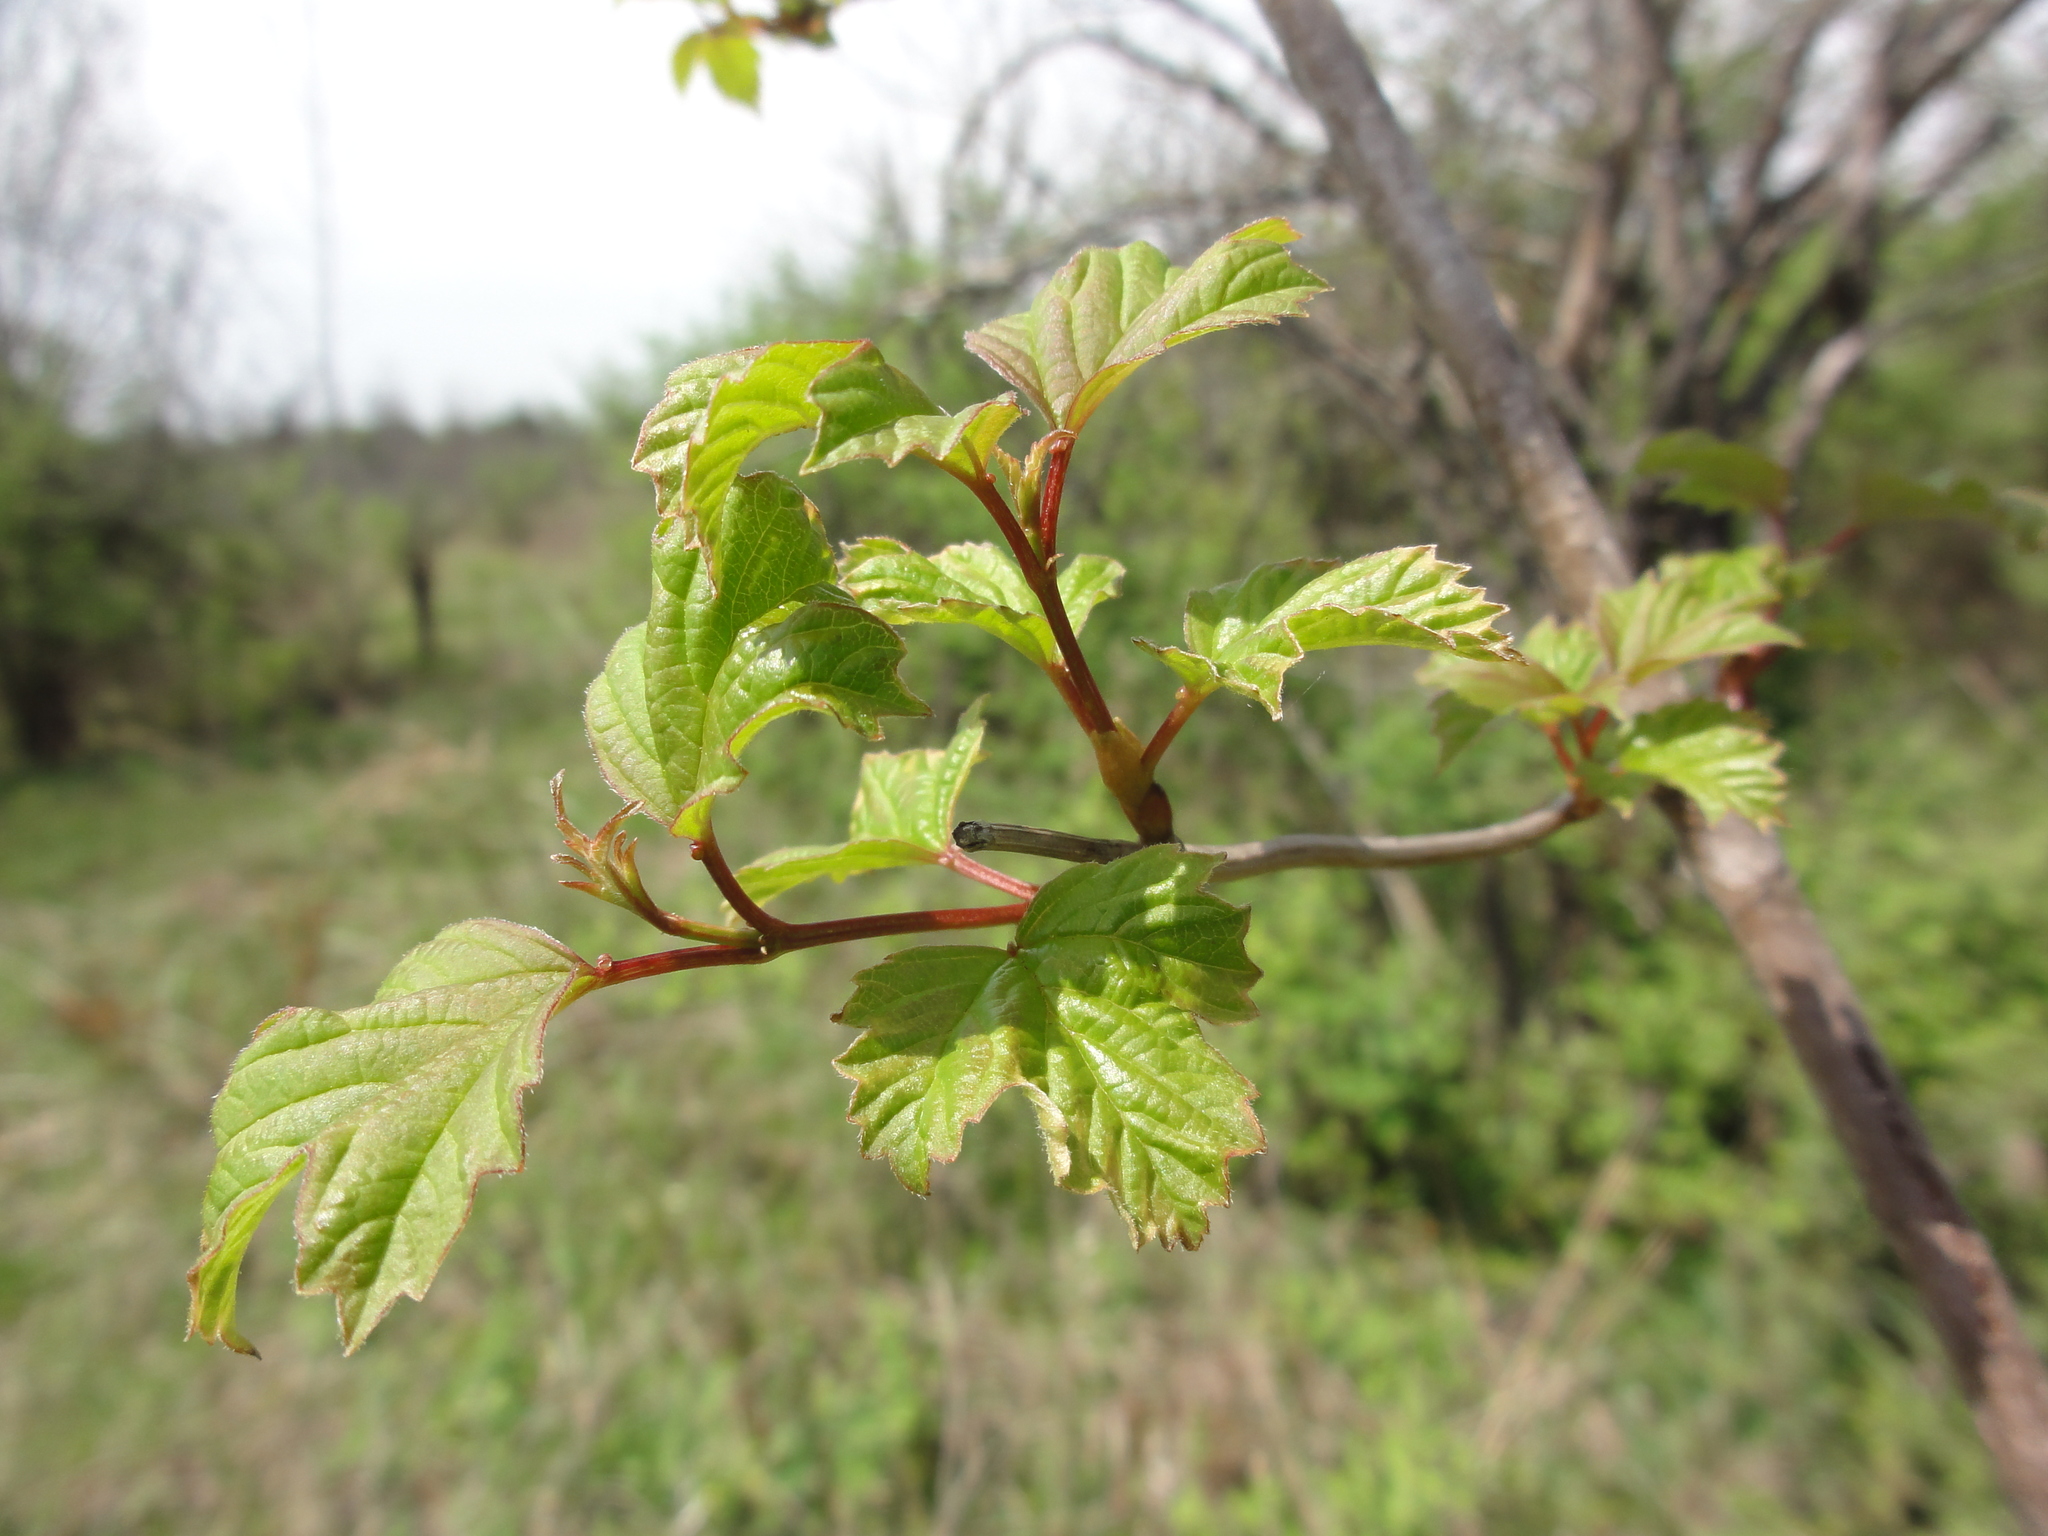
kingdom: Plantae
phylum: Tracheophyta
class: Magnoliopsida
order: Dipsacales
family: Viburnaceae
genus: Viburnum
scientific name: Viburnum opulus
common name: Guelder-rose
